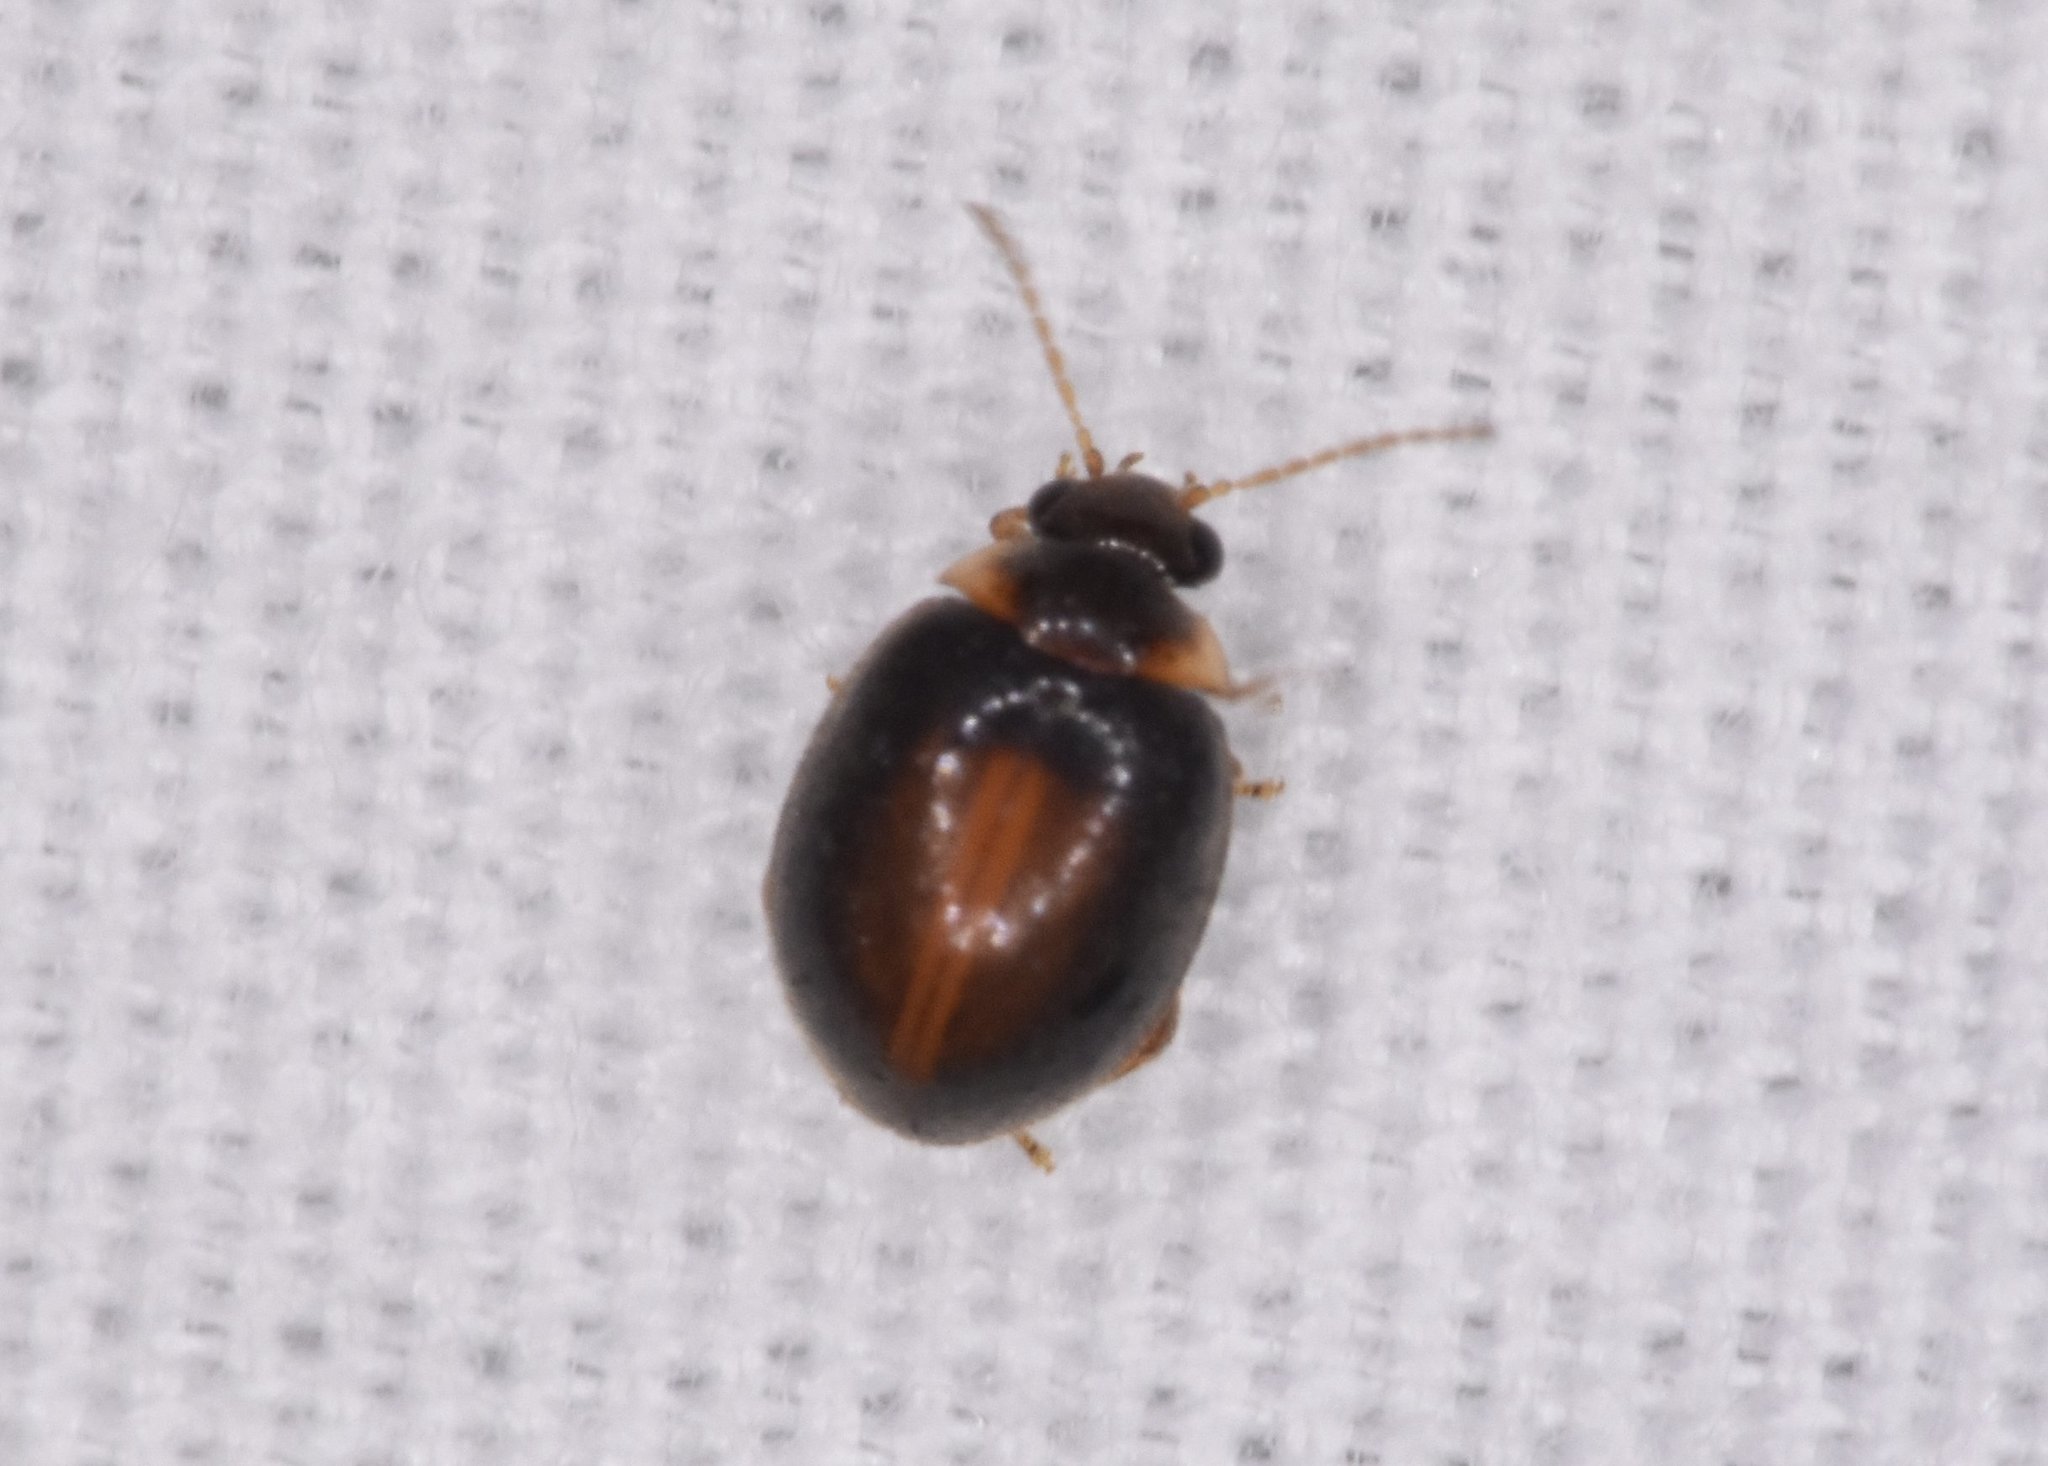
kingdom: Animalia
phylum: Arthropoda
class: Insecta
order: Coleoptera
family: Scirtidae
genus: Scirtes
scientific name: Scirtes orbiculatus
